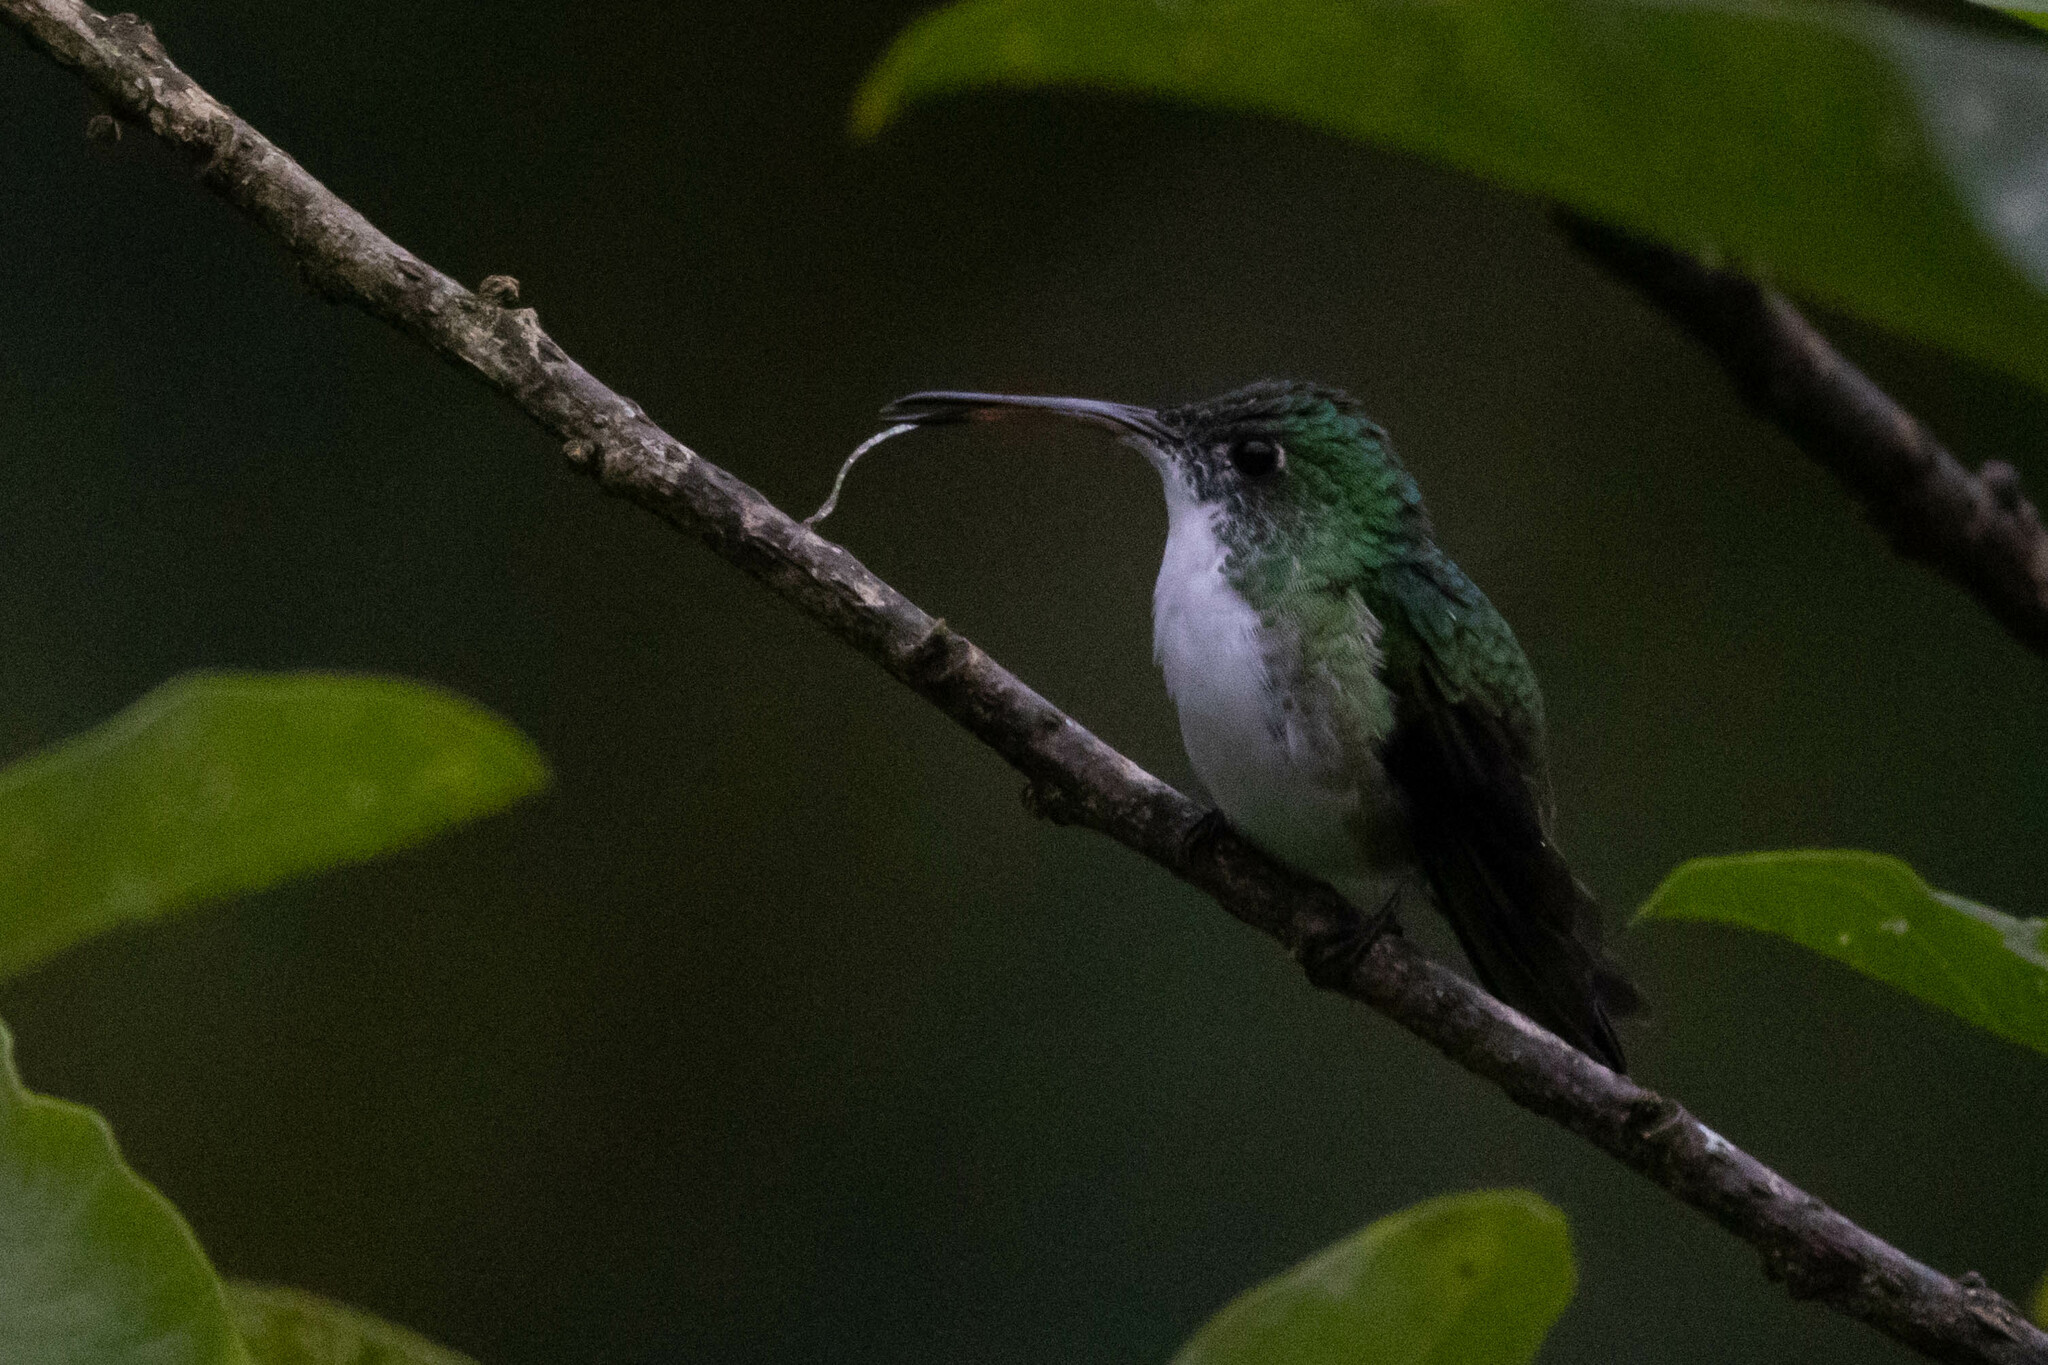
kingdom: Animalia
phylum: Chordata
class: Aves
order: Apodiformes
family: Trochilidae
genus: Uranomitra
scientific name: Uranomitra franciae
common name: Andean emerald
